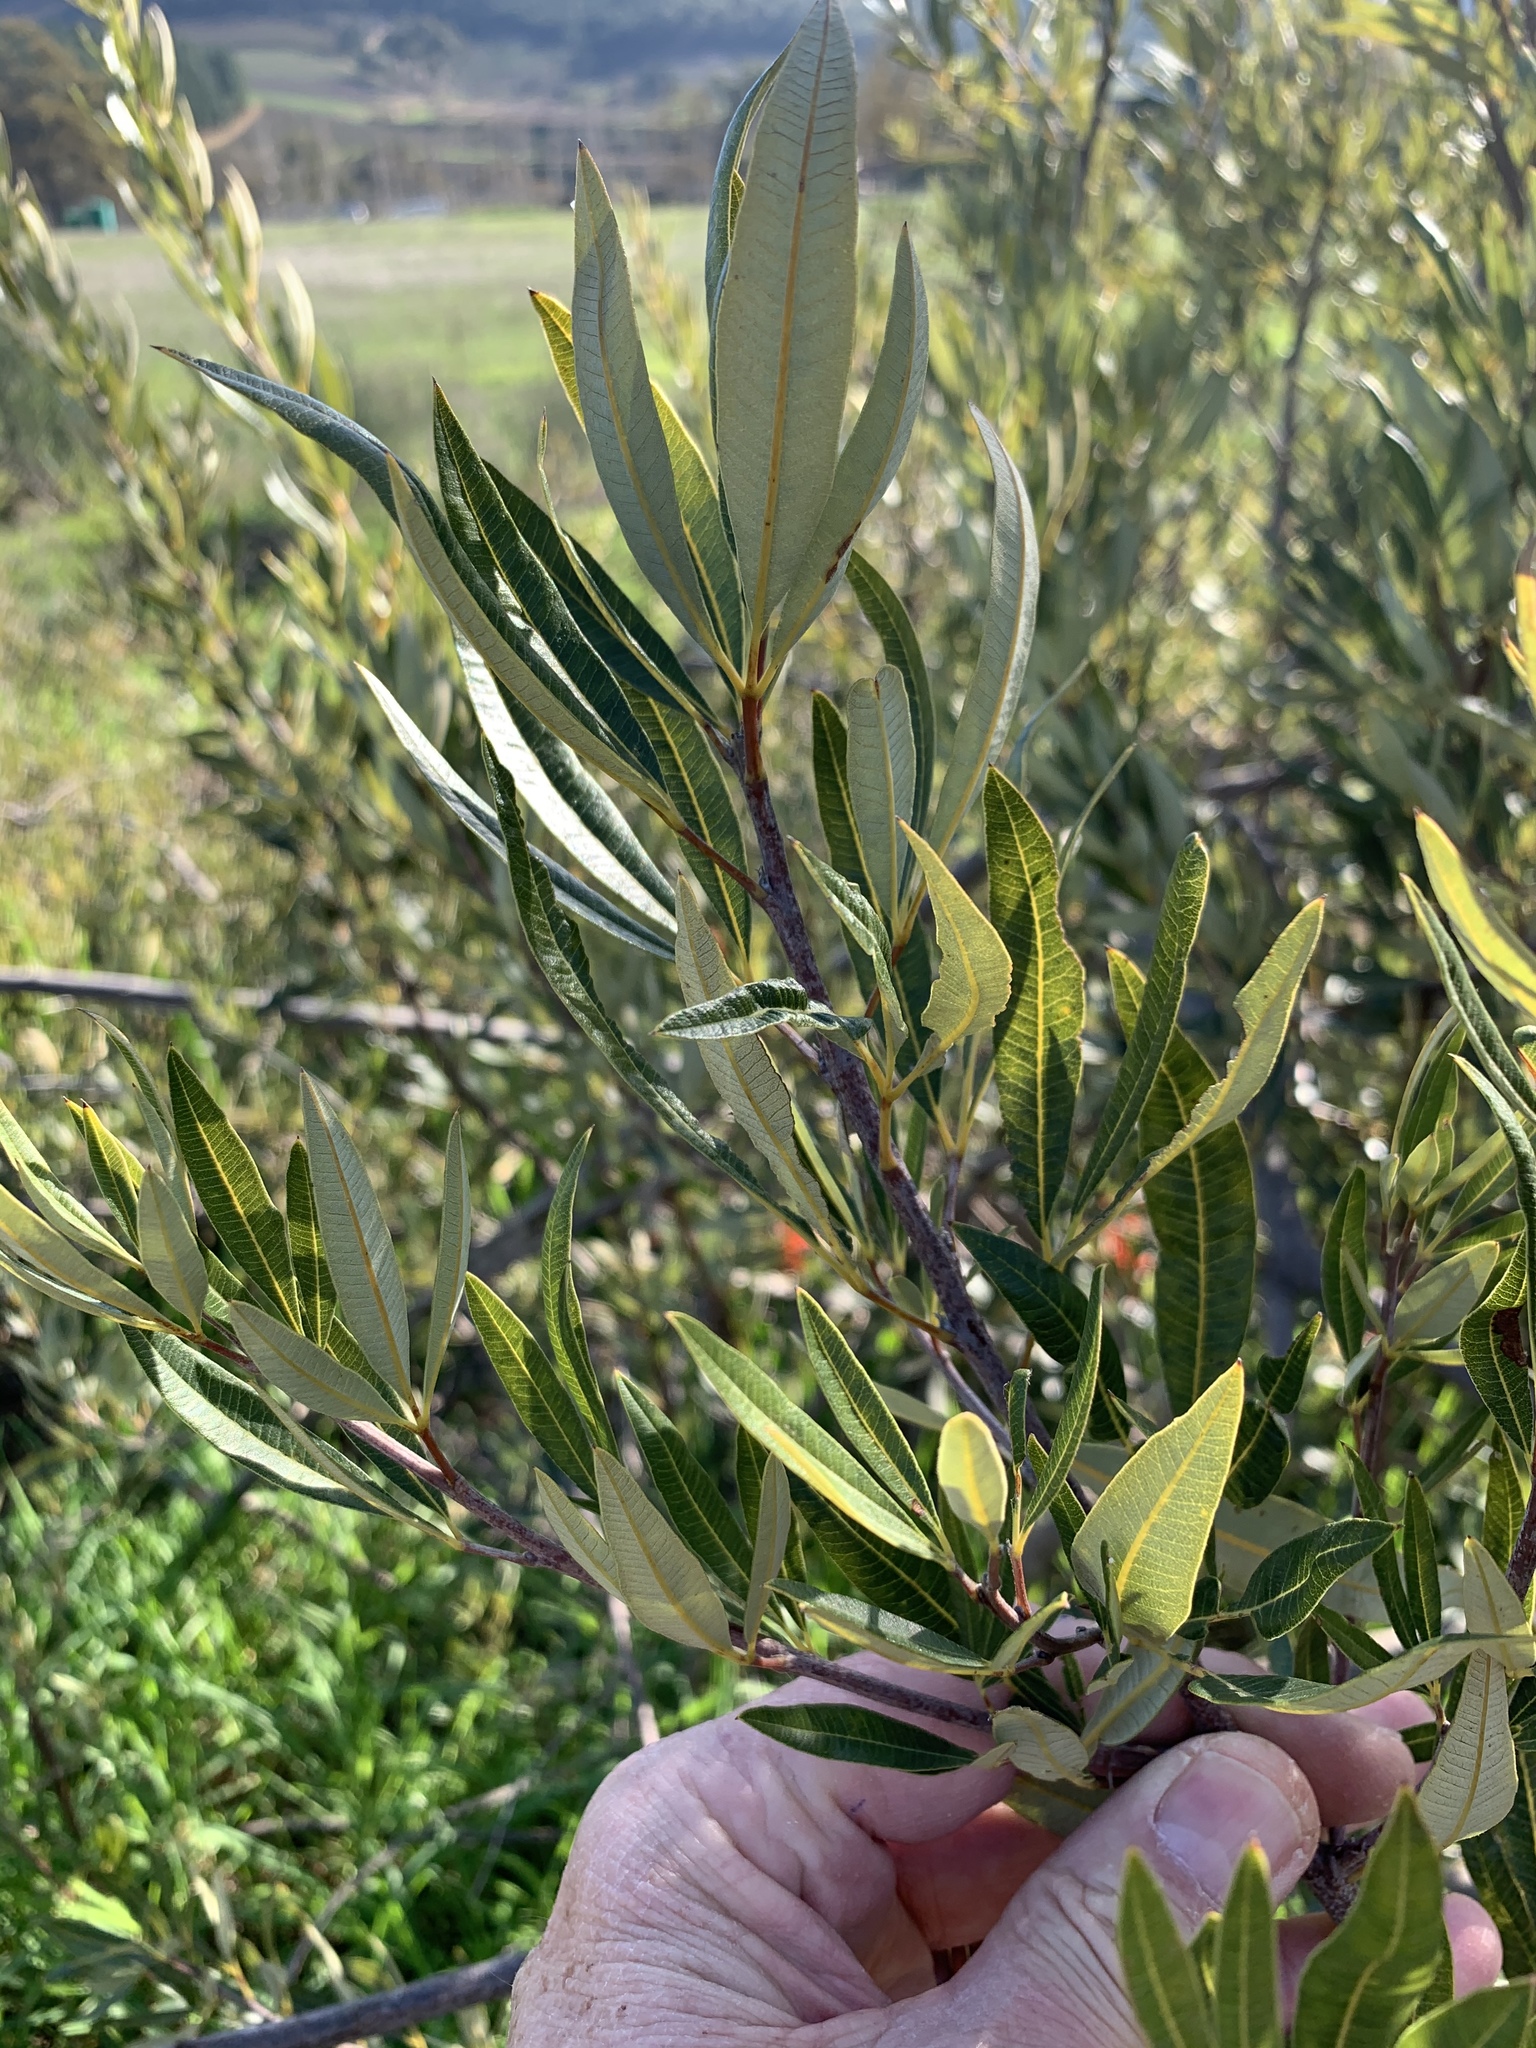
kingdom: Plantae
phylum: Tracheophyta
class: Magnoliopsida
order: Sapindales
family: Anacardiaceae
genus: Searsia
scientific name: Searsia angustifolia
